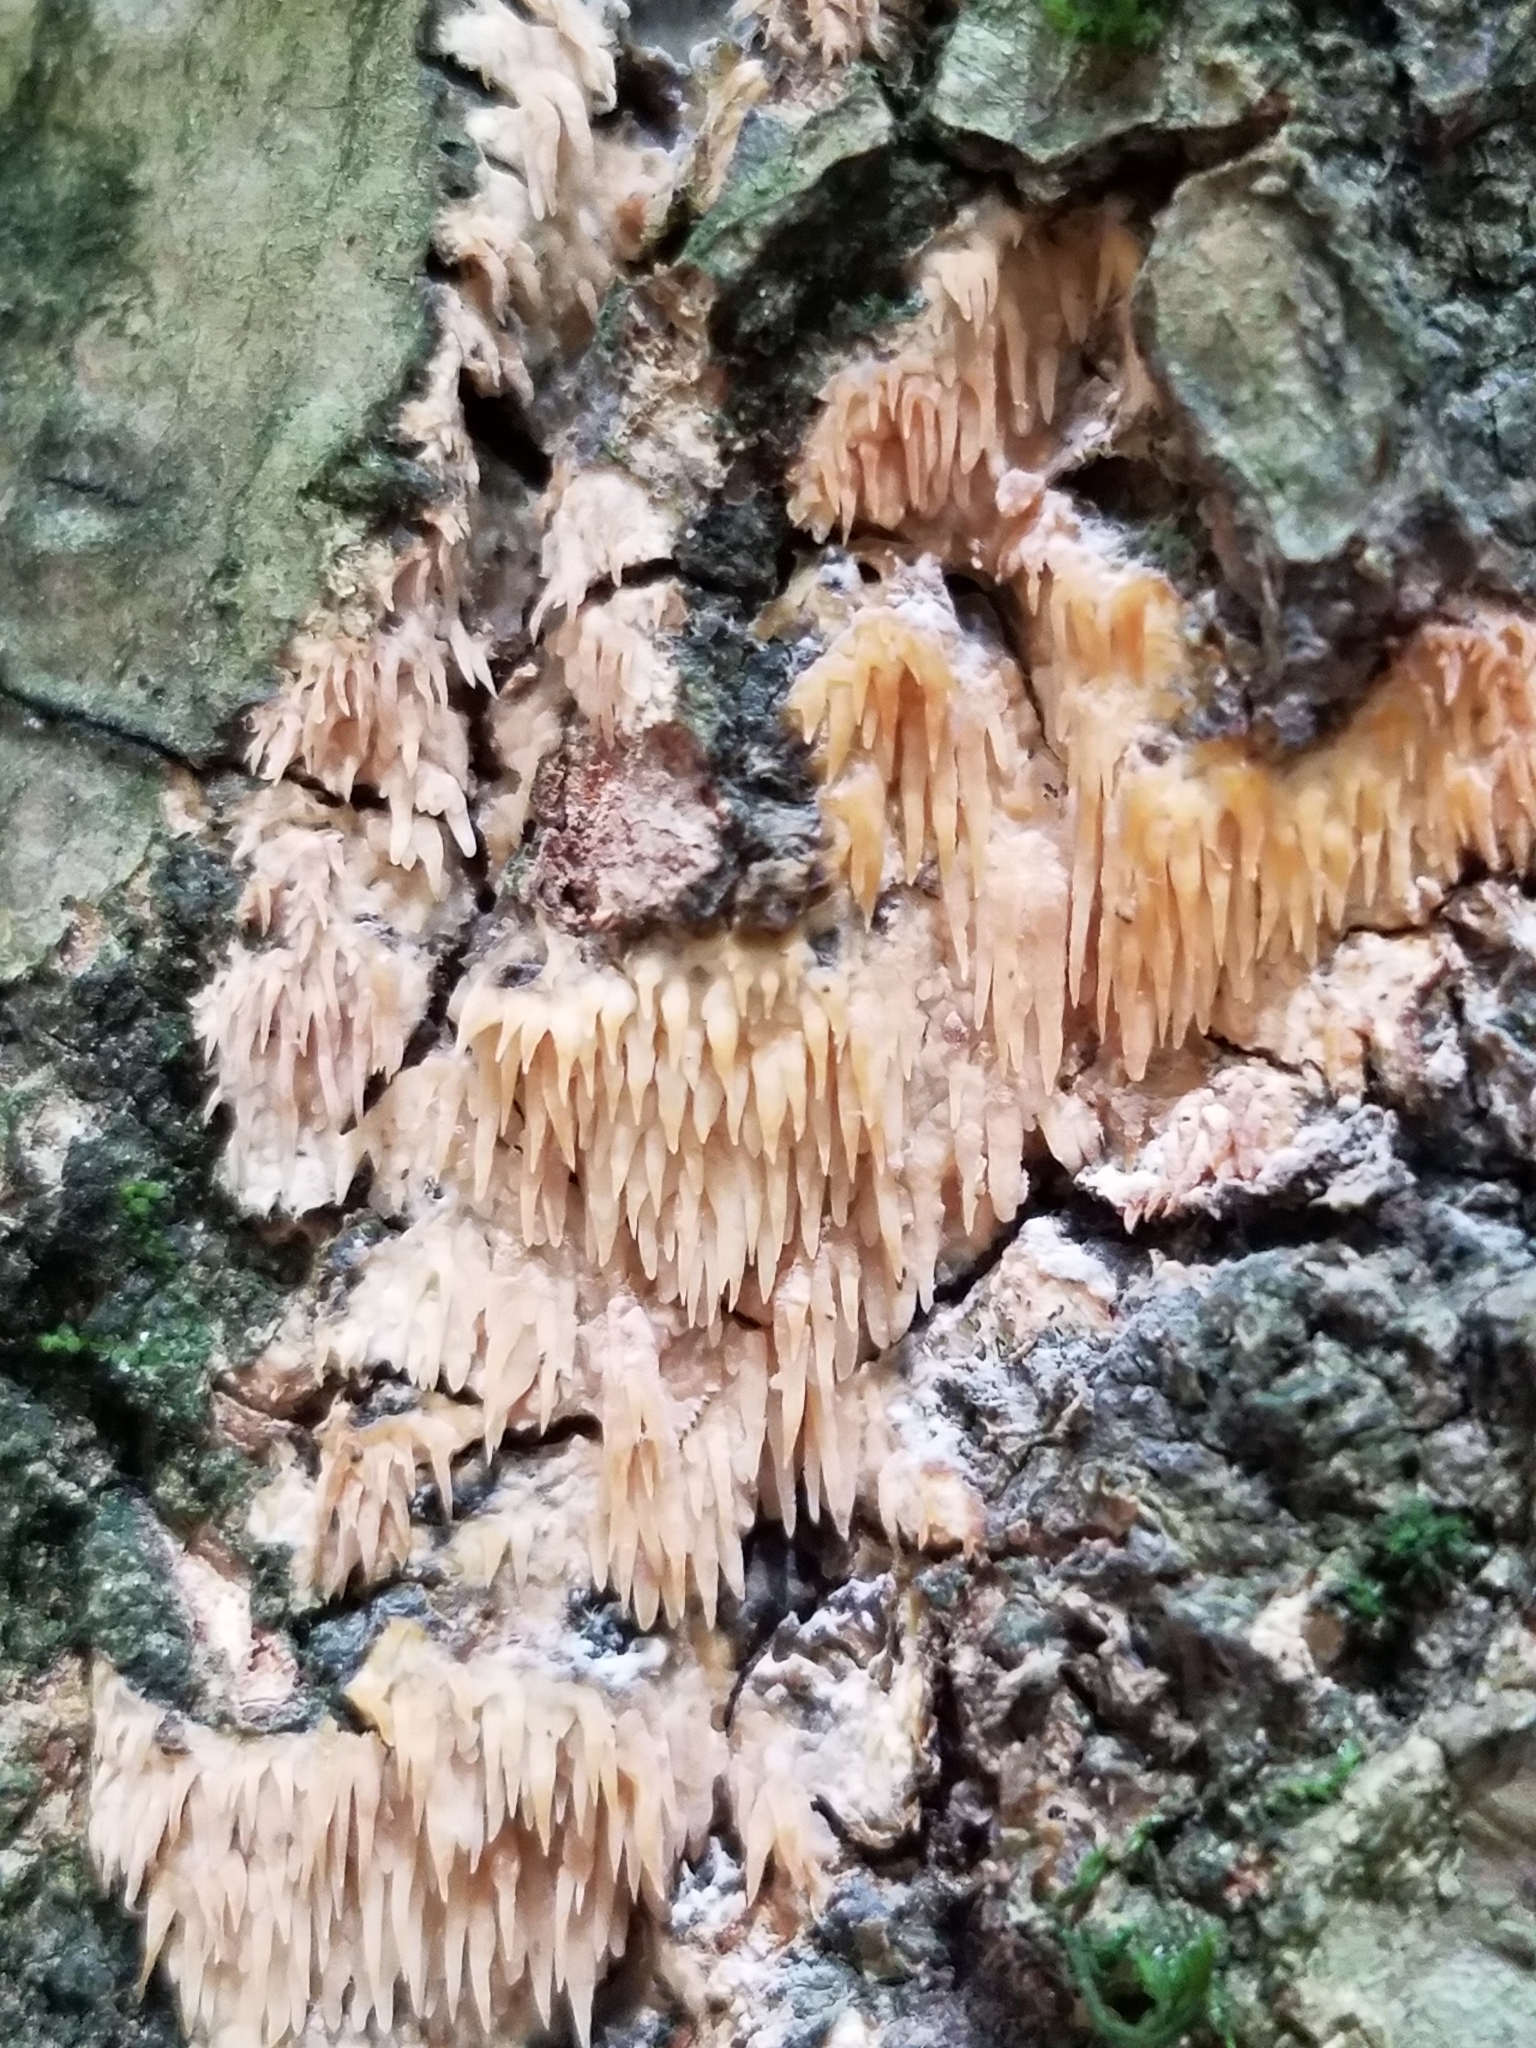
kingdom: Fungi
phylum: Basidiomycota
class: Agaricomycetes
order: Agaricales
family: Radulomycetaceae
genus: Radulomyces
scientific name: Radulomyces copelandii
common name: Asian beauty
